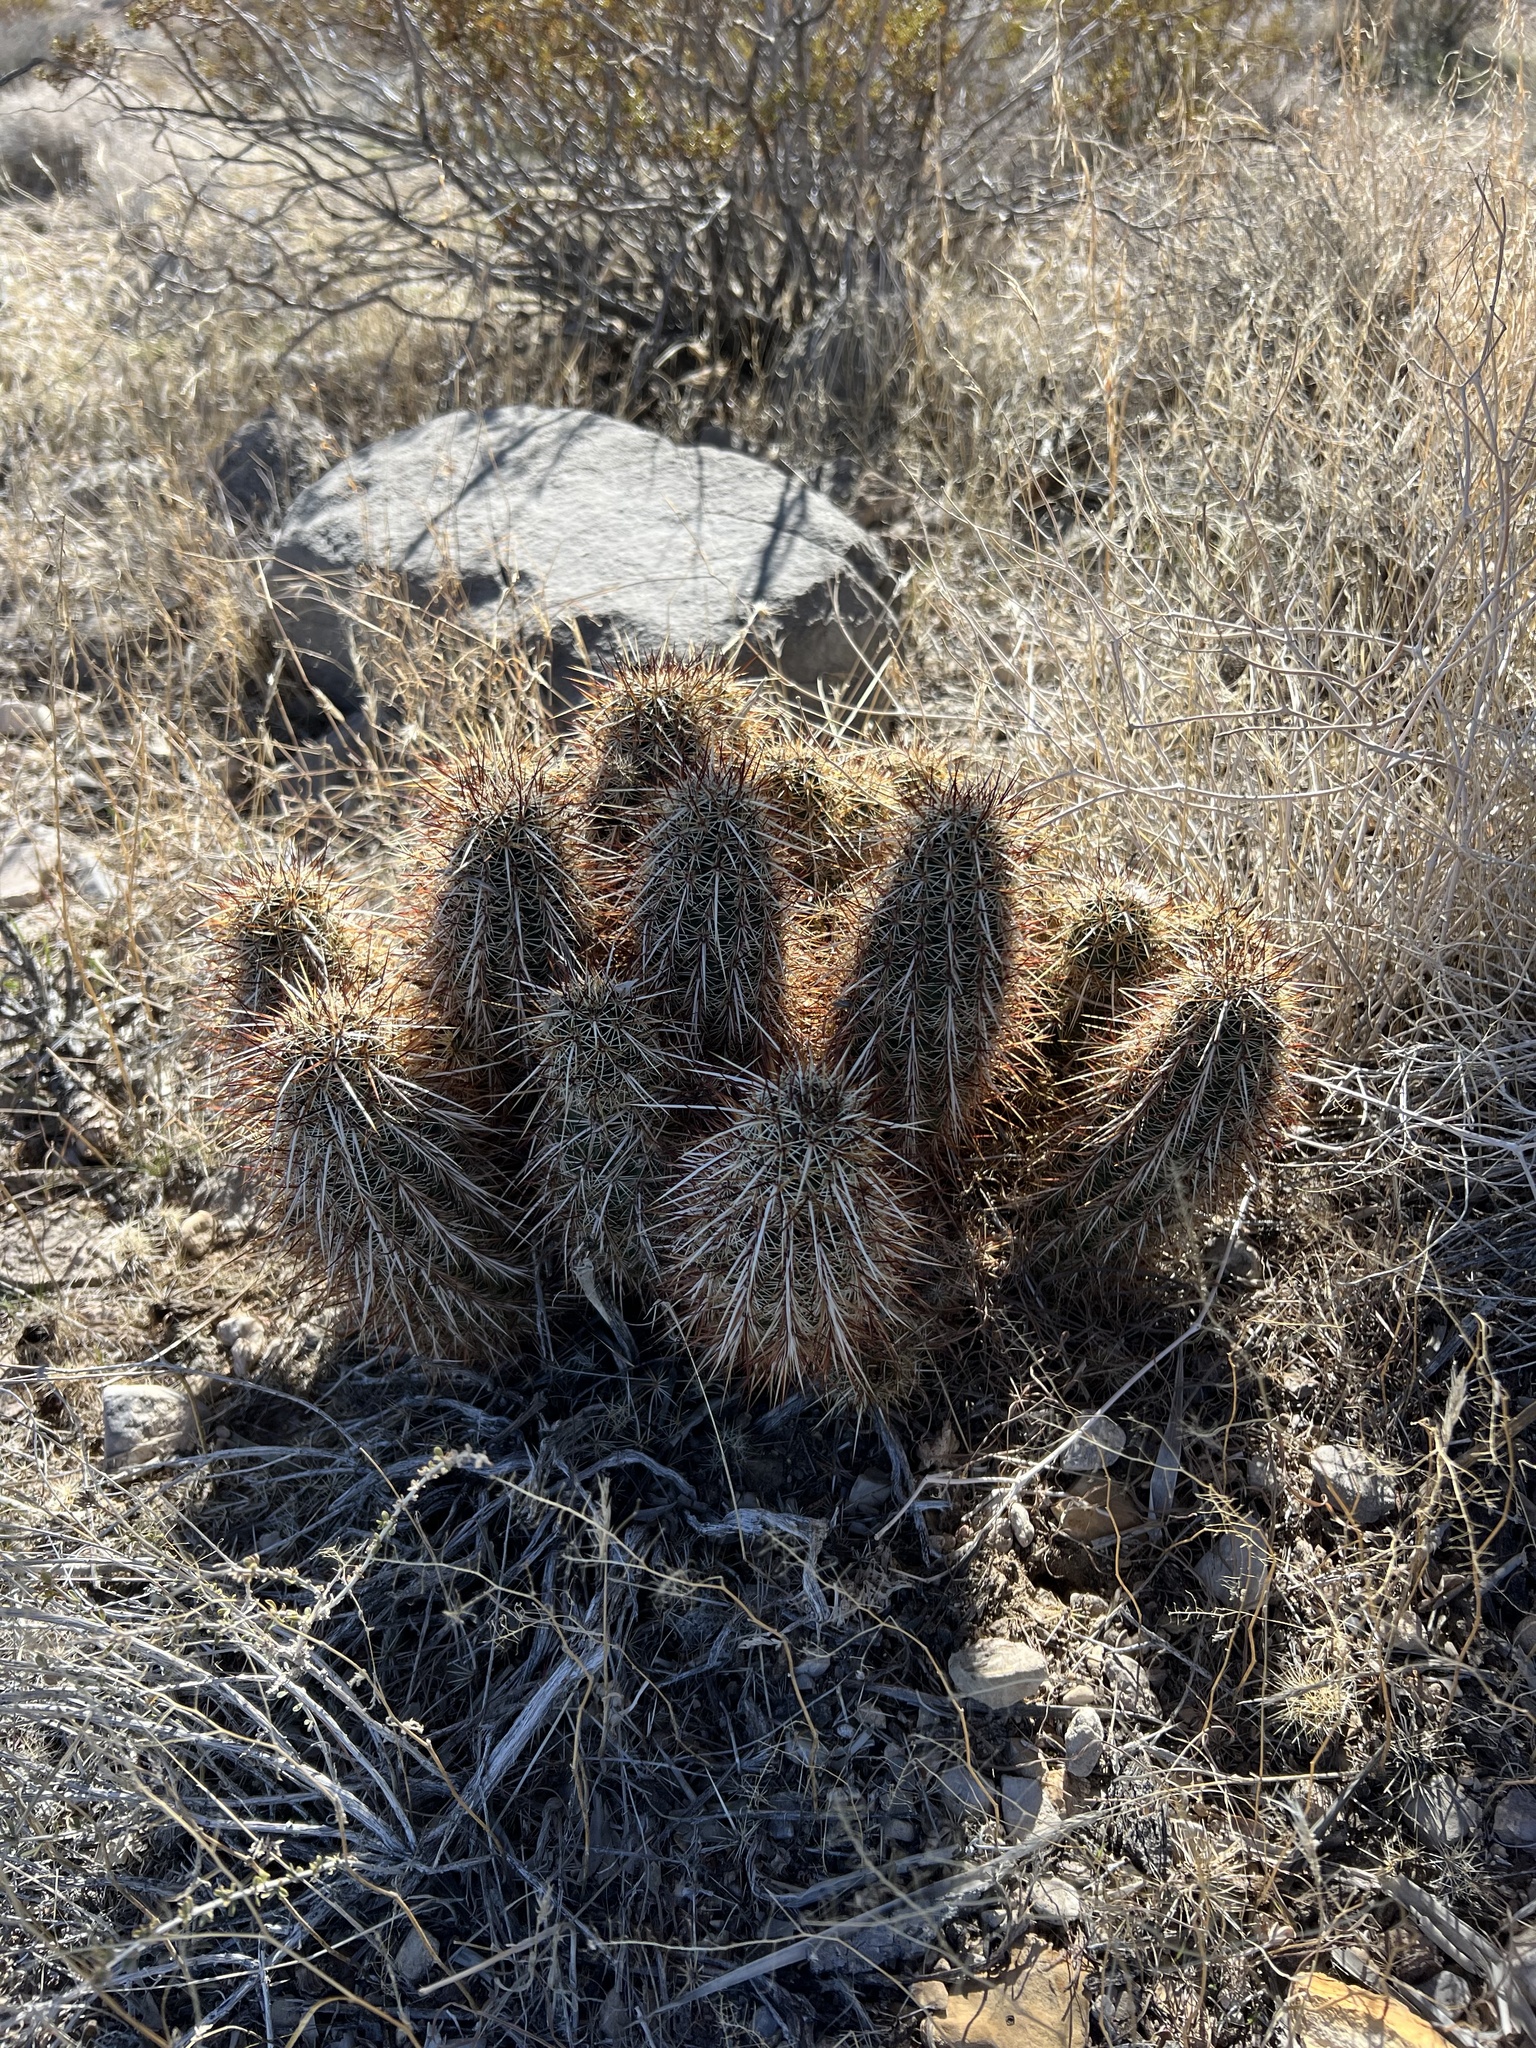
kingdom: Plantae
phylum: Tracheophyta
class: Magnoliopsida
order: Caryophyllales
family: Cactaceae
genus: Echinocereus
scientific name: Echinocereus engelmannii
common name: Engelmann's hedgehog cactus
